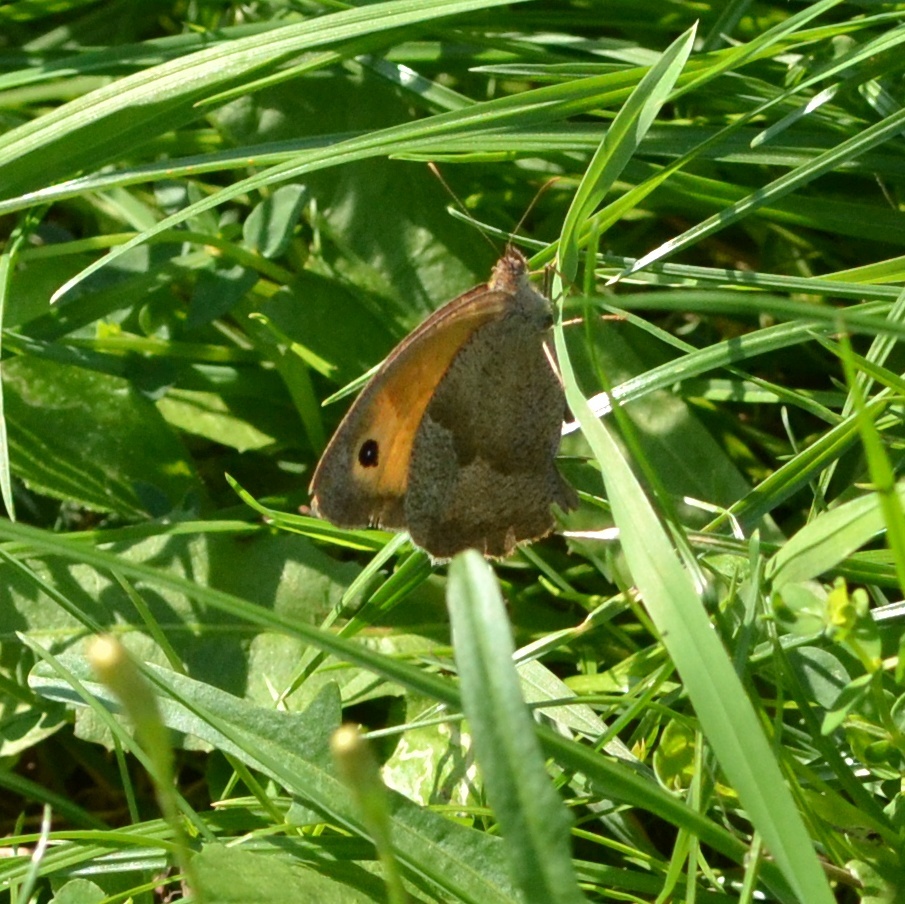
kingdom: Animalia
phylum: Arthropoda
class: Insecta
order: Lepidoptera
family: Nymphalidae
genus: Maniola
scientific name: Maniola jurtina
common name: Meadow brown
